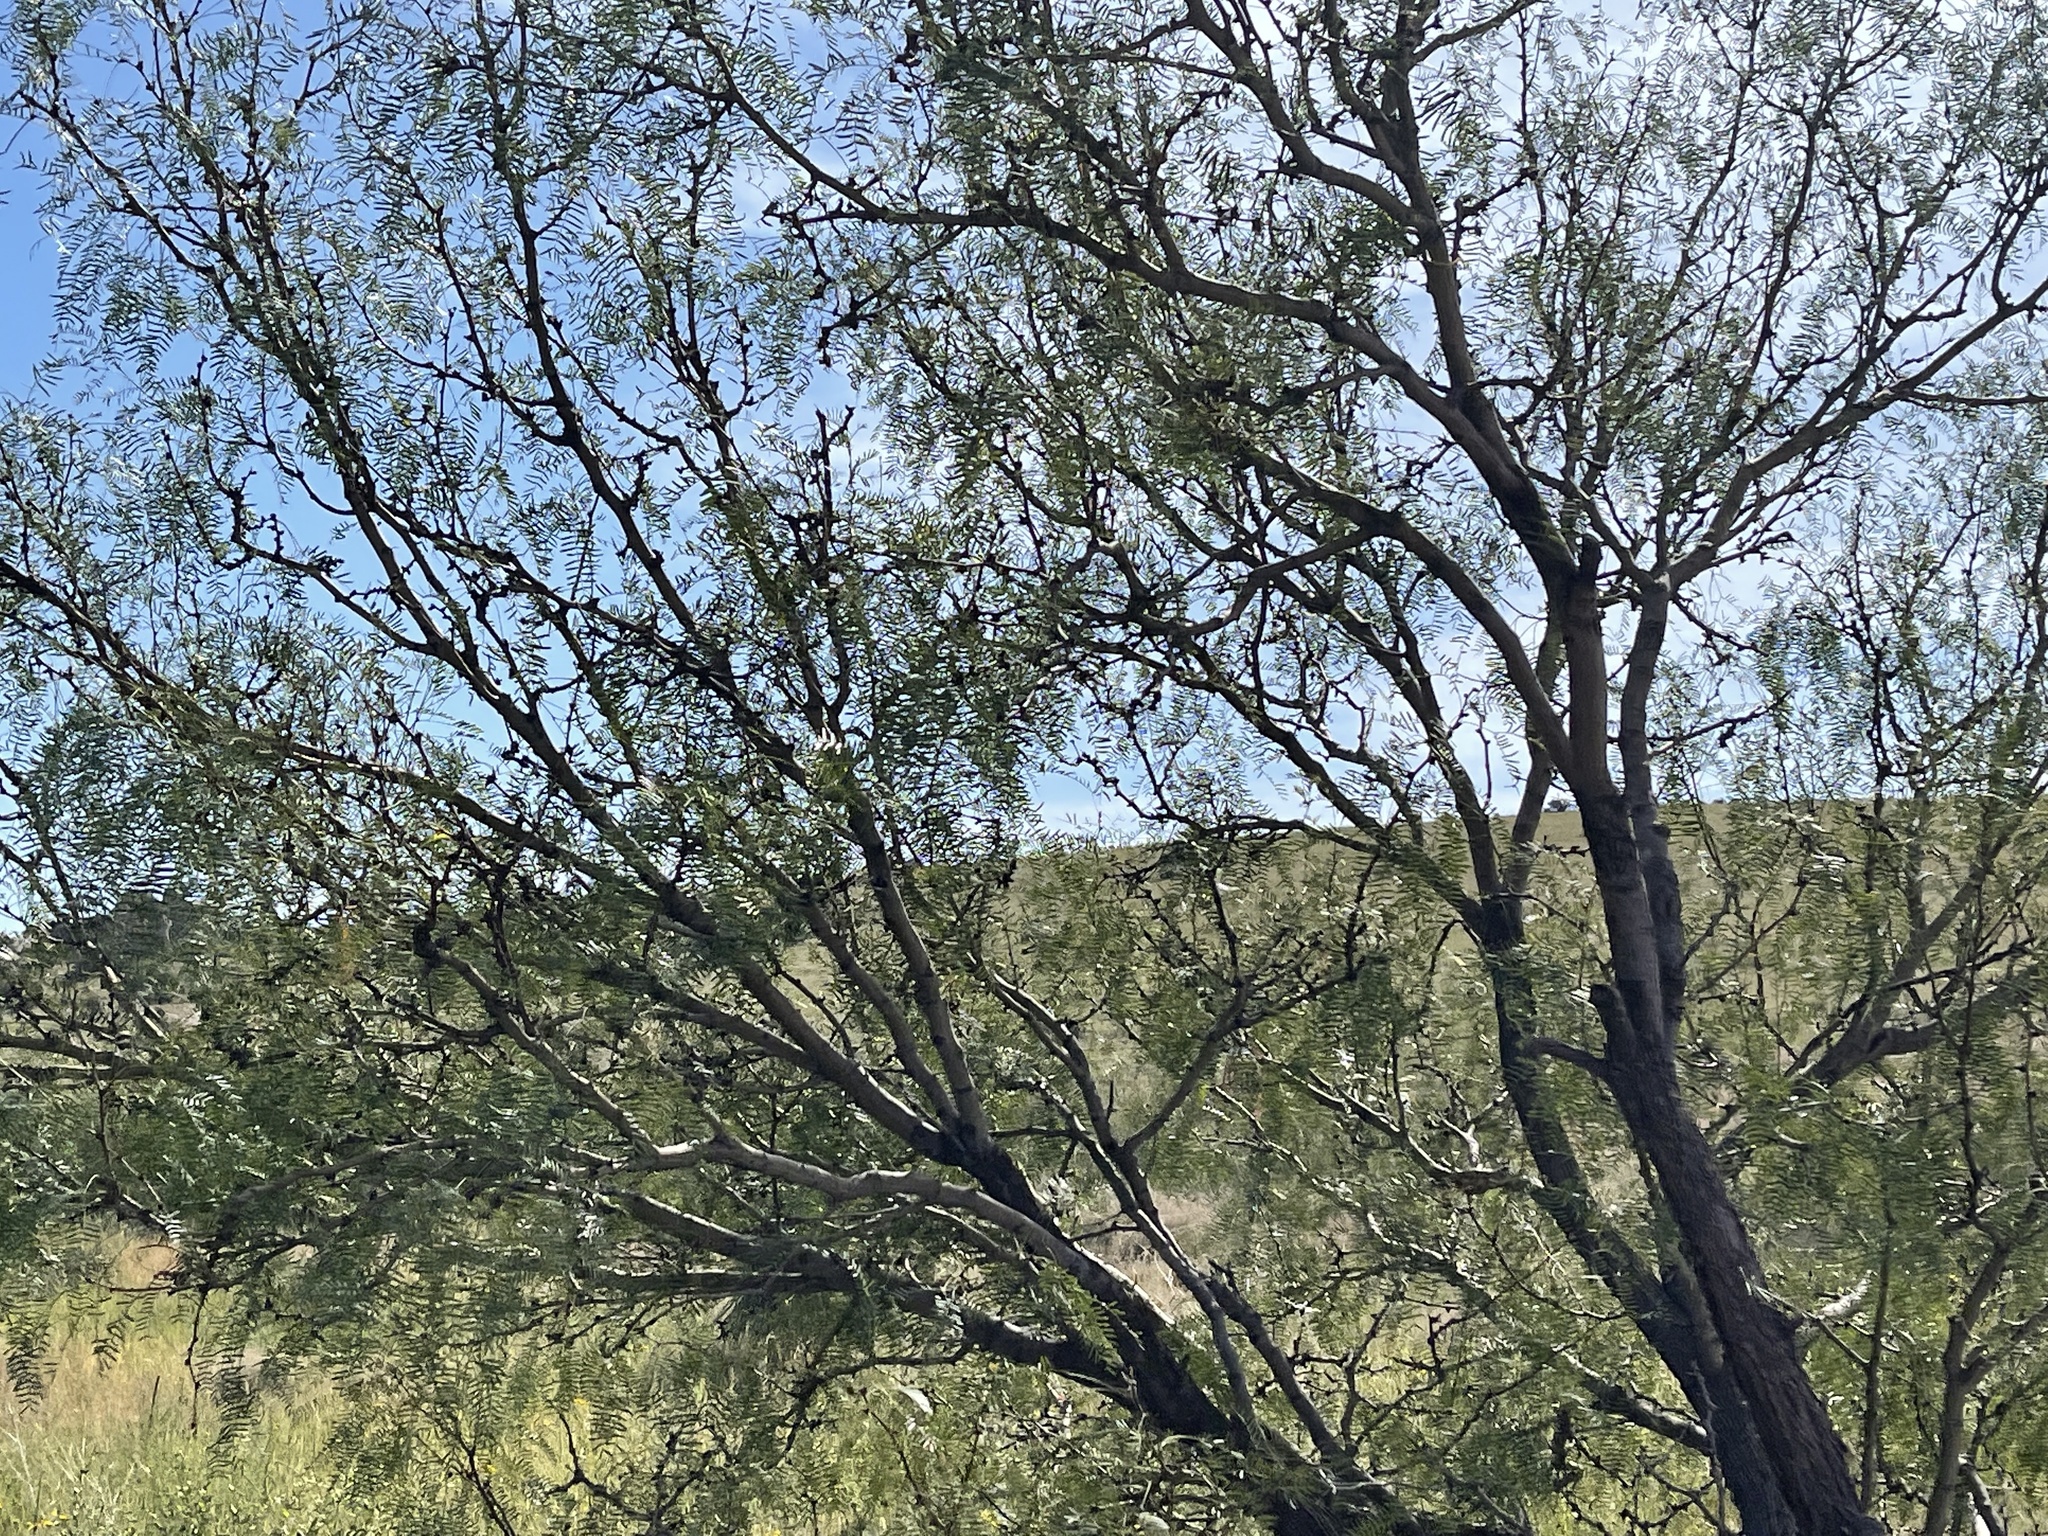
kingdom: Plantae
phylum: Tracheophyta
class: Magnoliopsida
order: Fabales
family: Fabaceae
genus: Prosopis
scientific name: Prosopis glandulosa
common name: Honey mesquite
